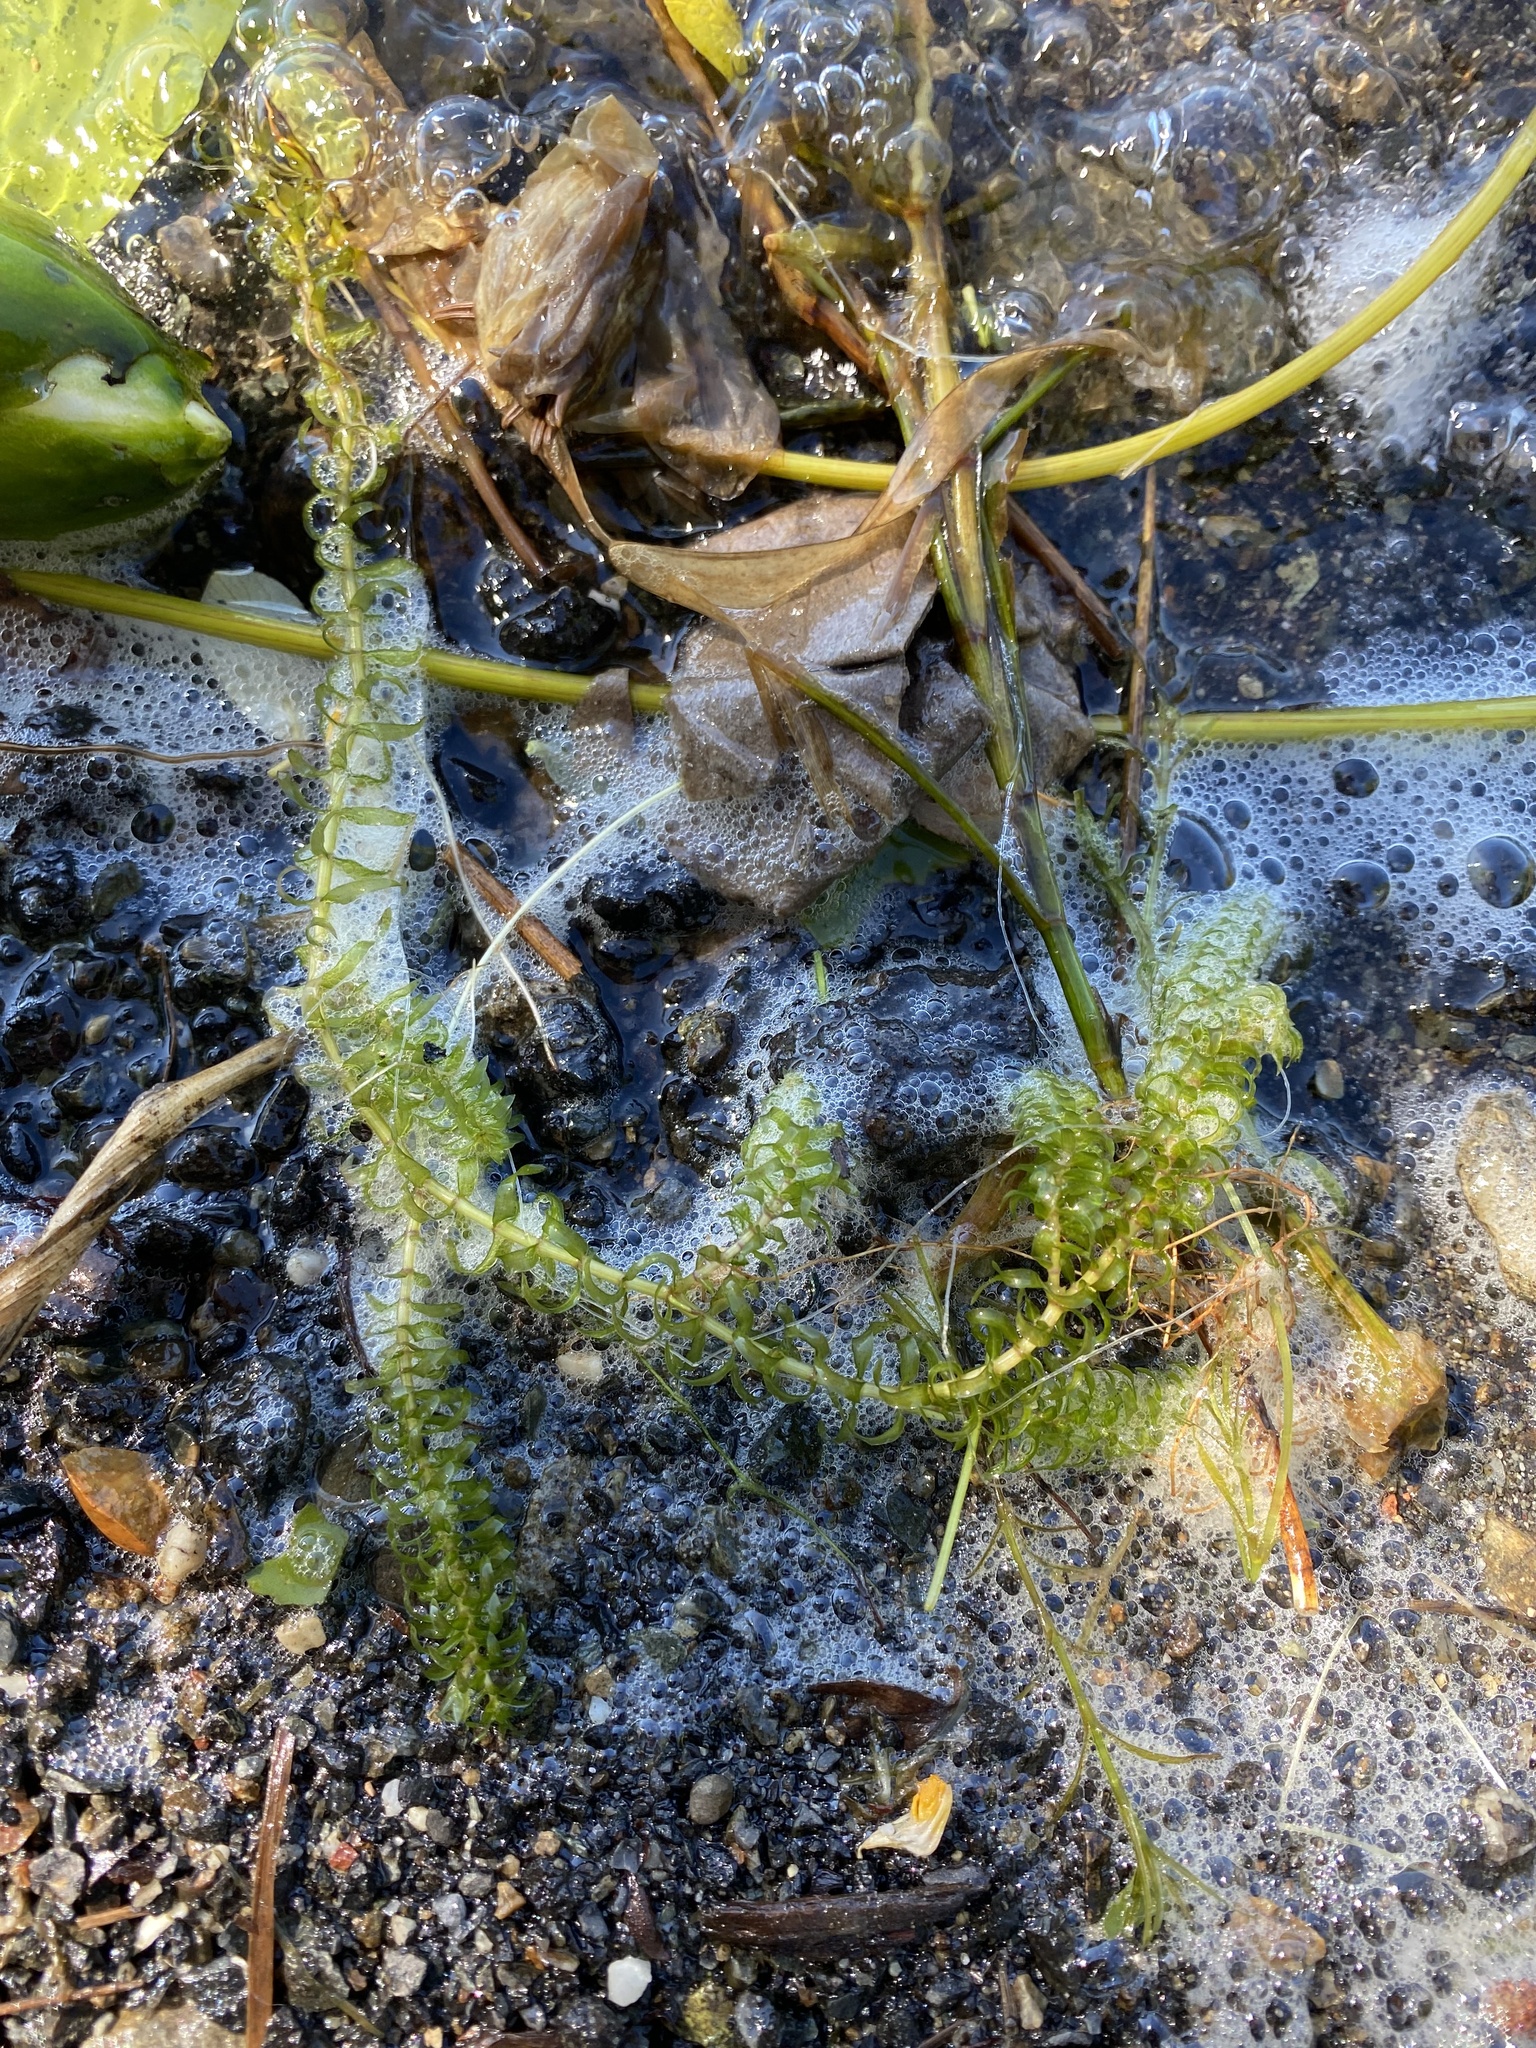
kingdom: Plantae
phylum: Tracheophyta
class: Liliopsida
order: Alismatales
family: Hydrocharitaceae
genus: Elodea
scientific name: Elodea canadensis
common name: Canadian waterweed
